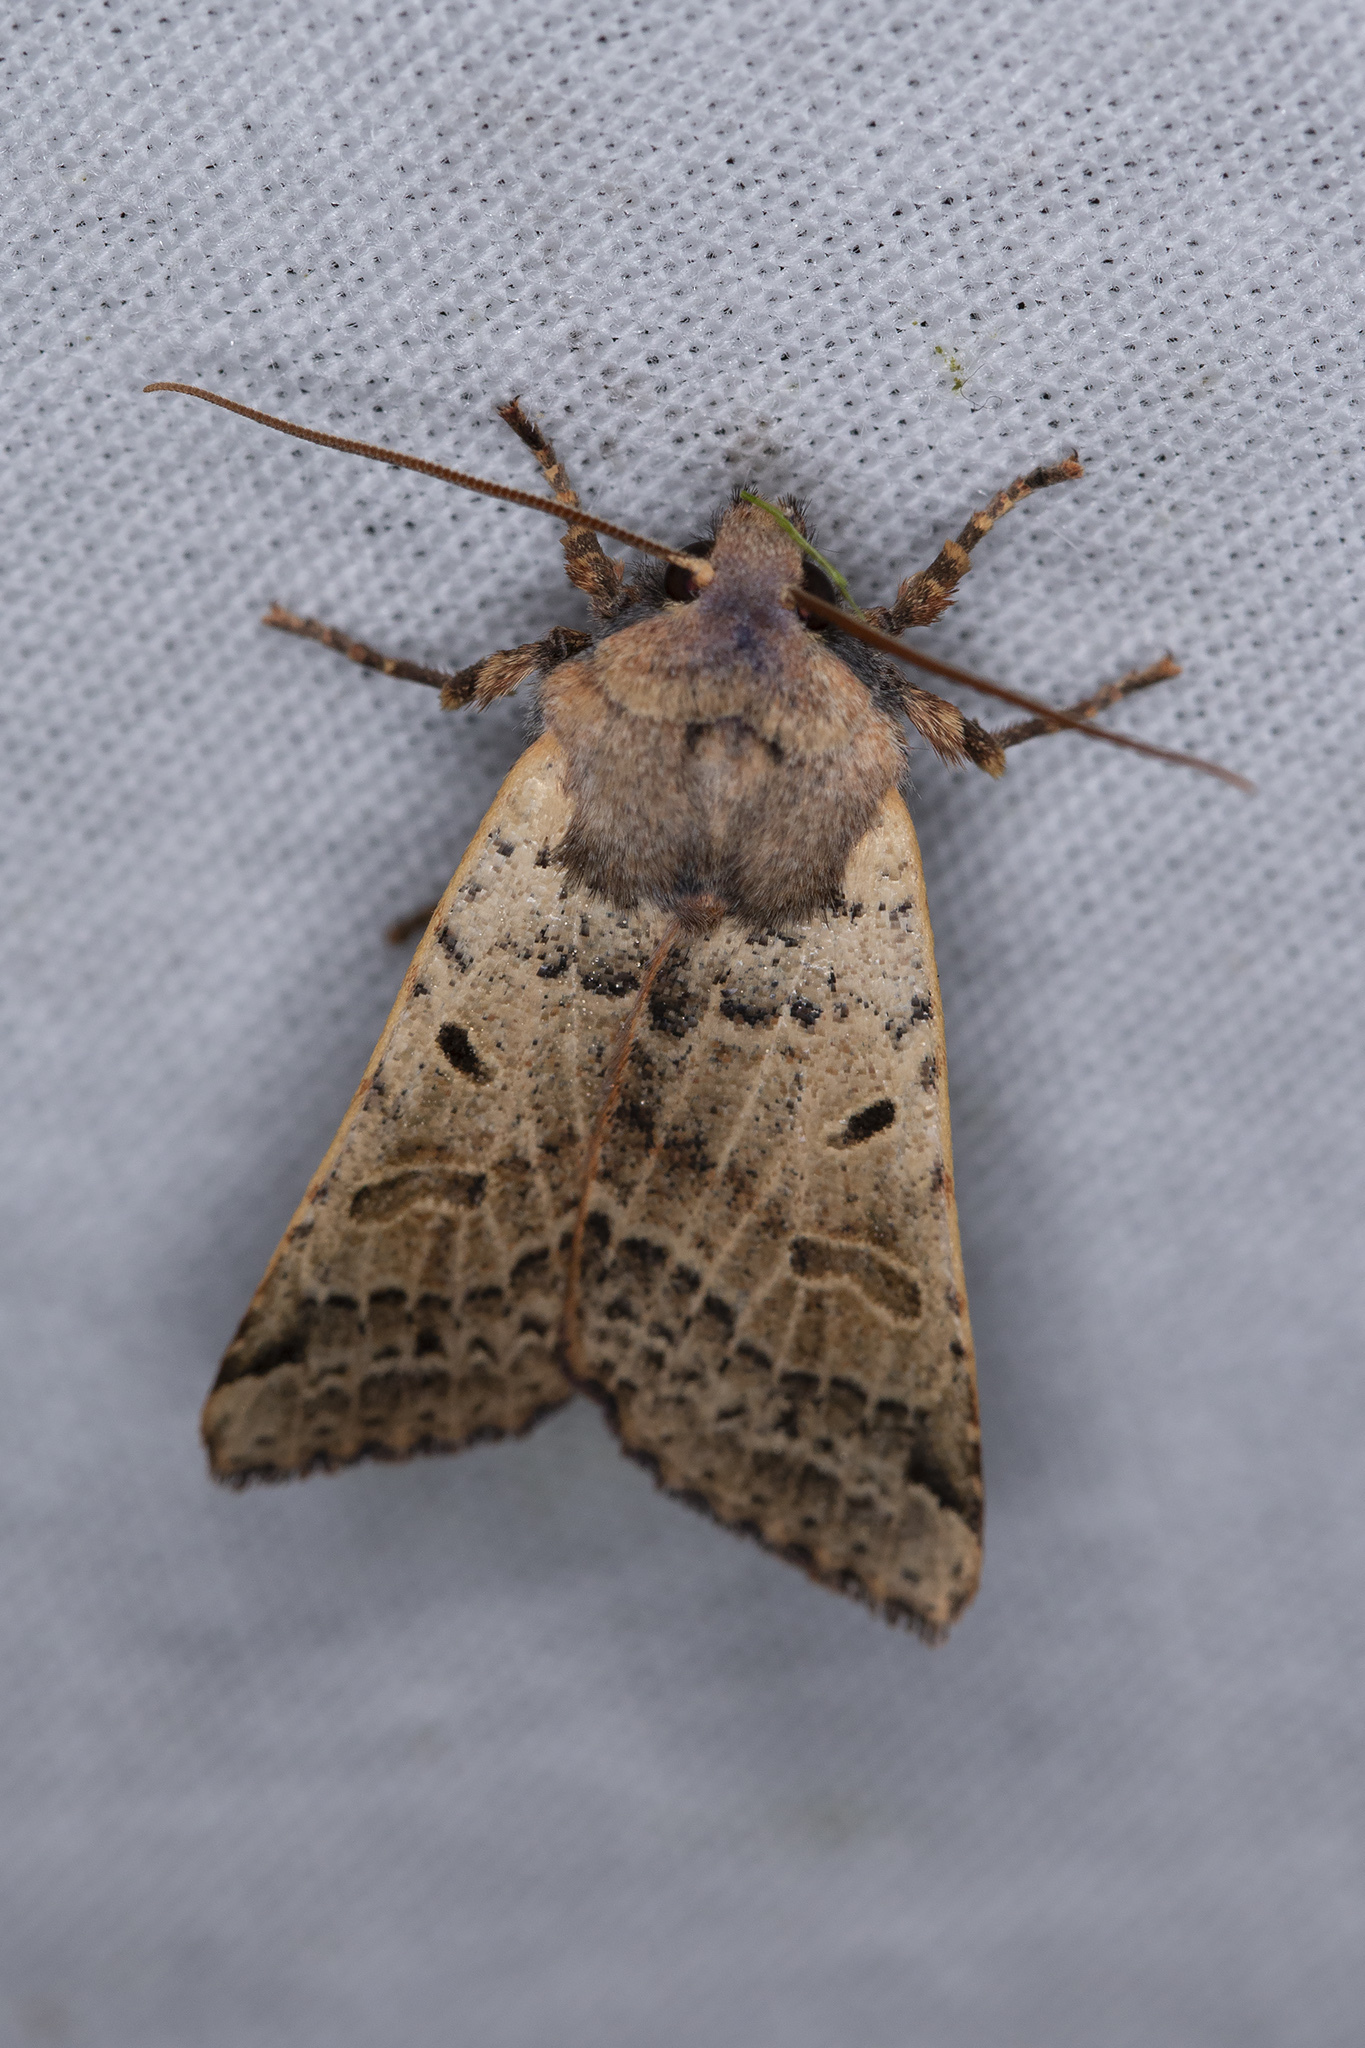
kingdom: Animalia
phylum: Arthropoda
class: Insecta
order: Lepidoptera
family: Noctuidae
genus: Agrochola
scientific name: Agrochola lychnidis
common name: Beaded chestnut
